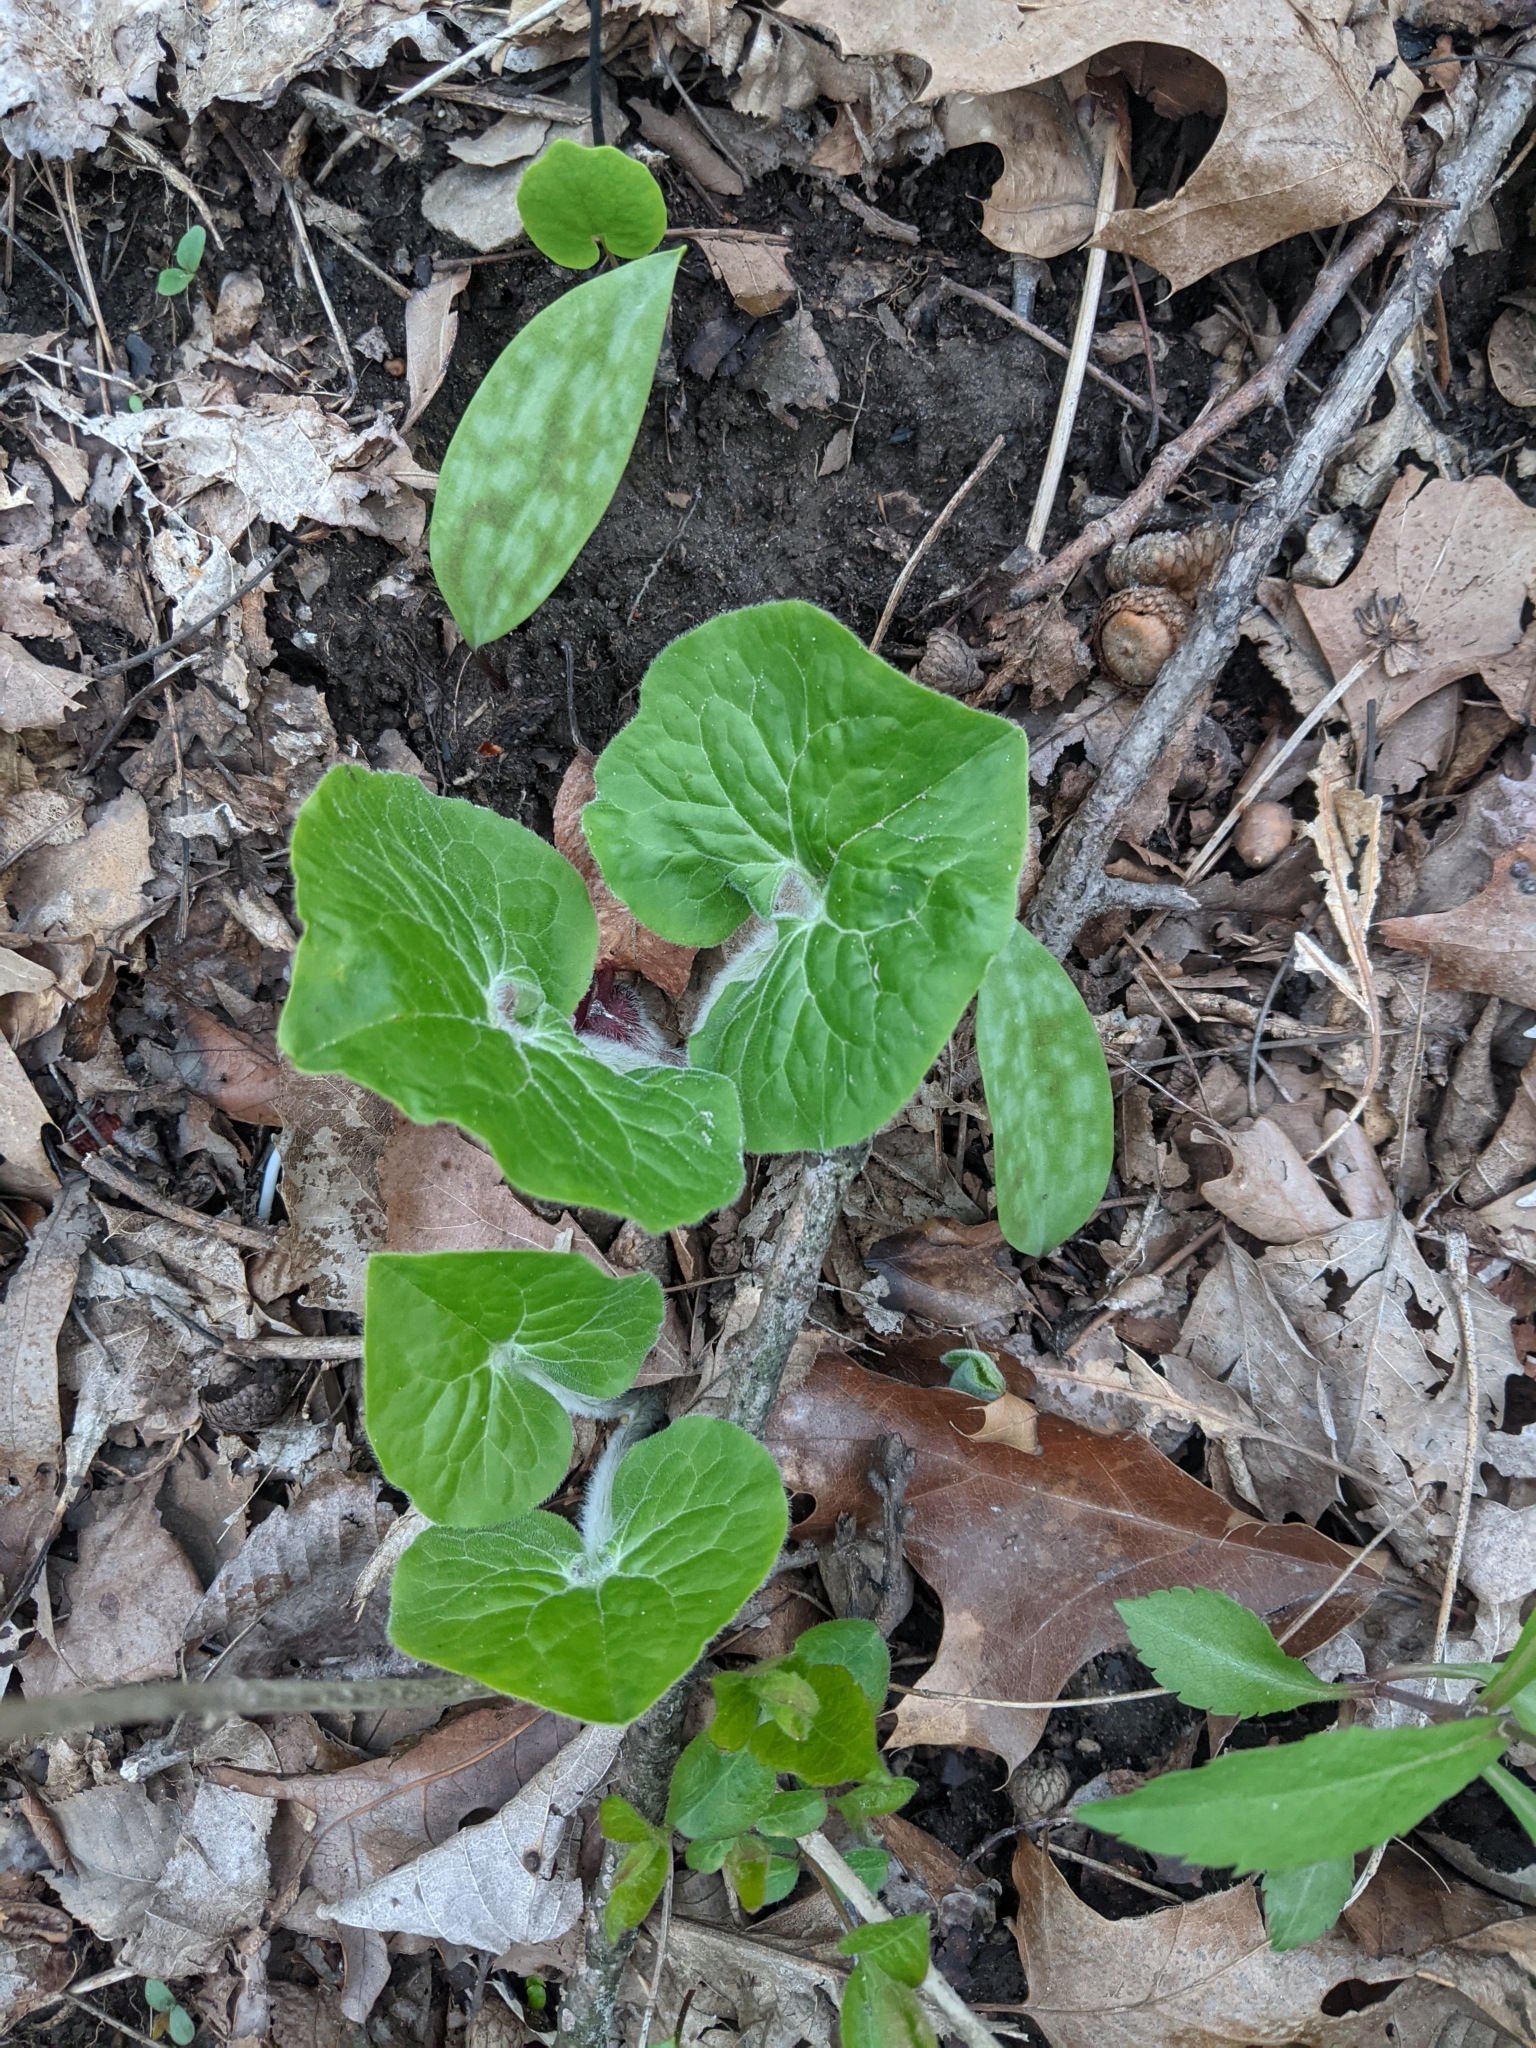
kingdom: Plantae
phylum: Tracheophyta
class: Magnoliopsida
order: Piperales
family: Aristolochiaceae
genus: Asarum
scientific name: Asarum canadense
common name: Wild ginger
